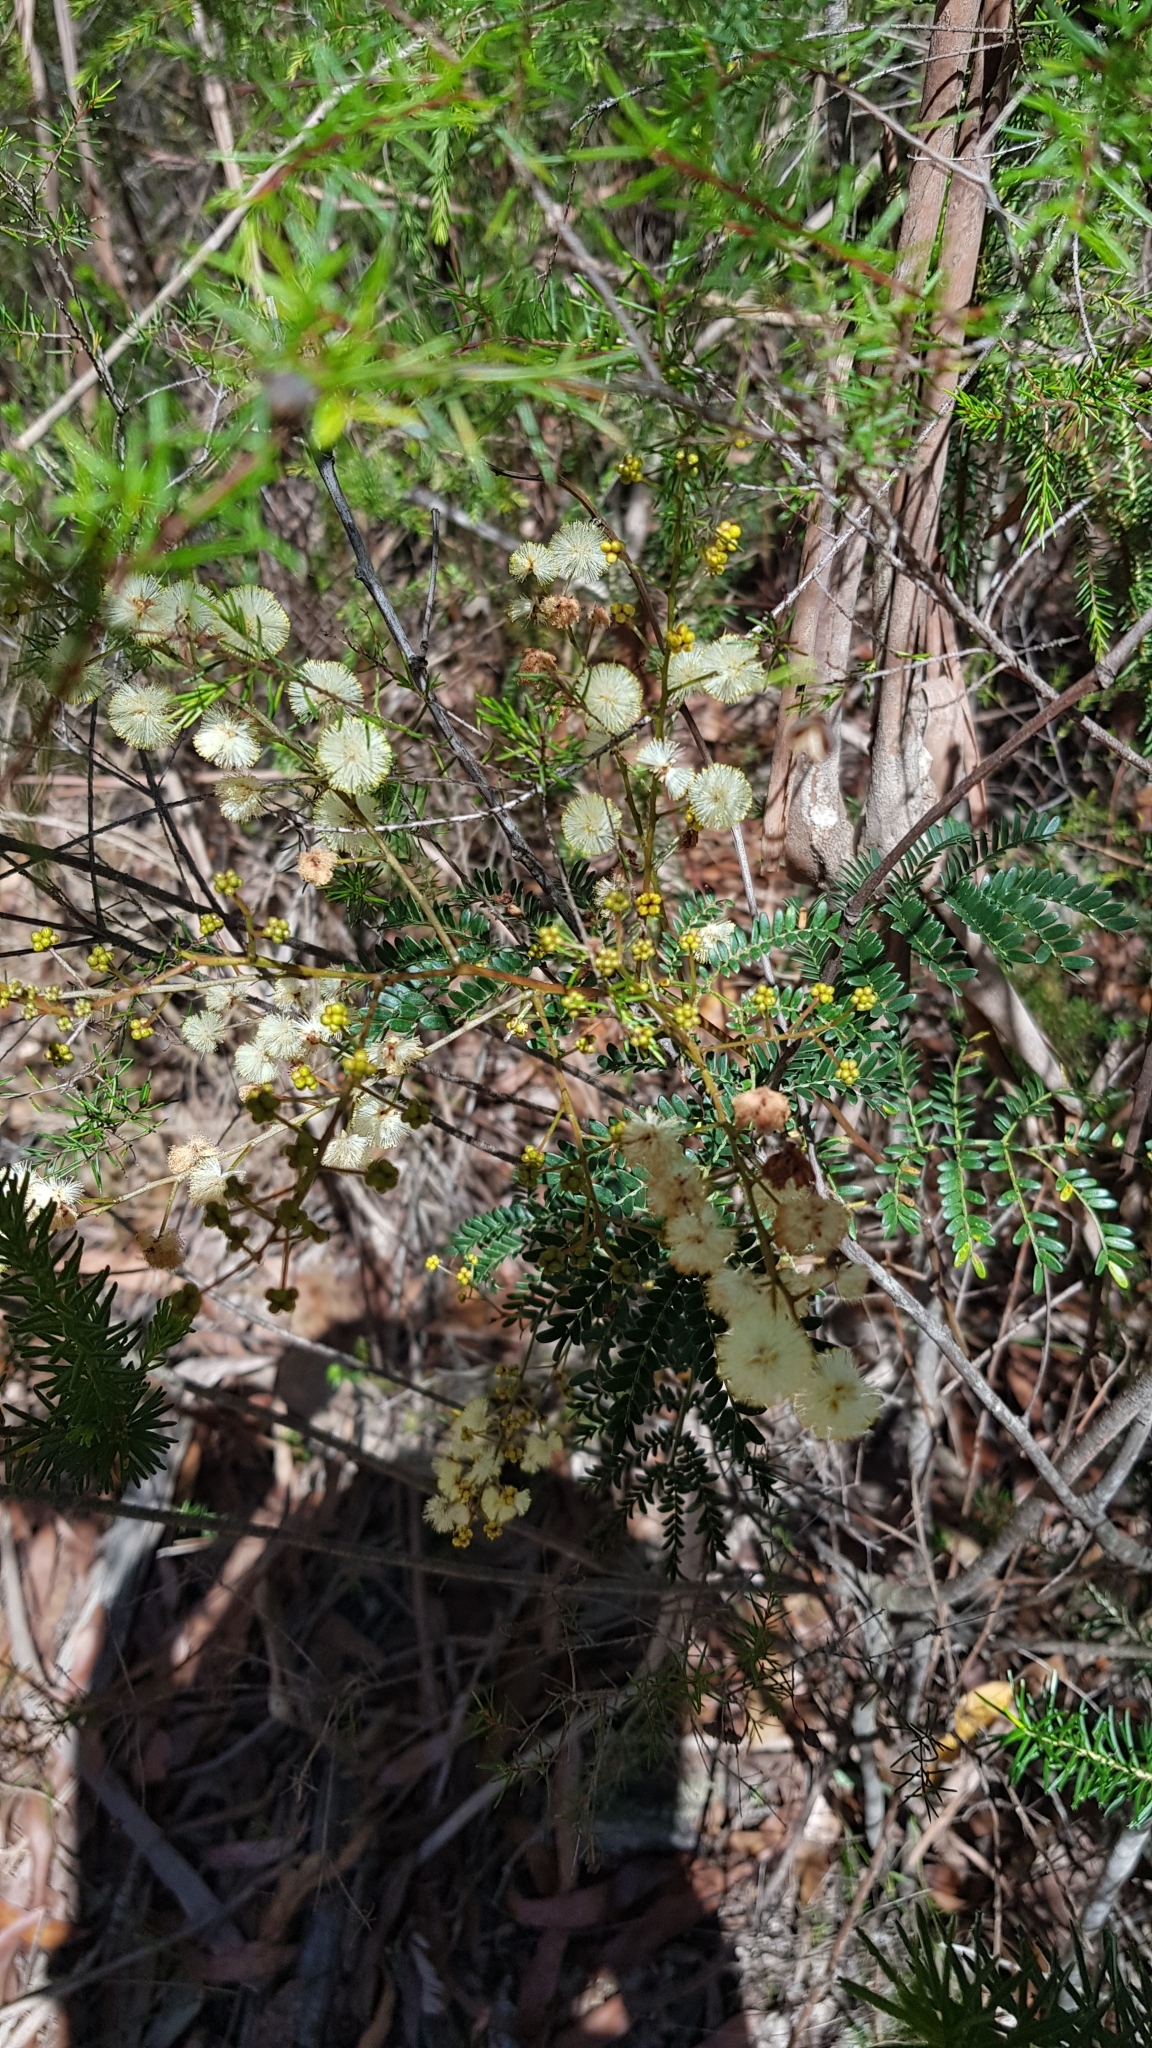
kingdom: Plantae
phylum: Tracheophyta
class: Magnoliopsida
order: Fabales
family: Fabaceae
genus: Acacia
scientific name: Acacia terminalis
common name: Cedar wattle
